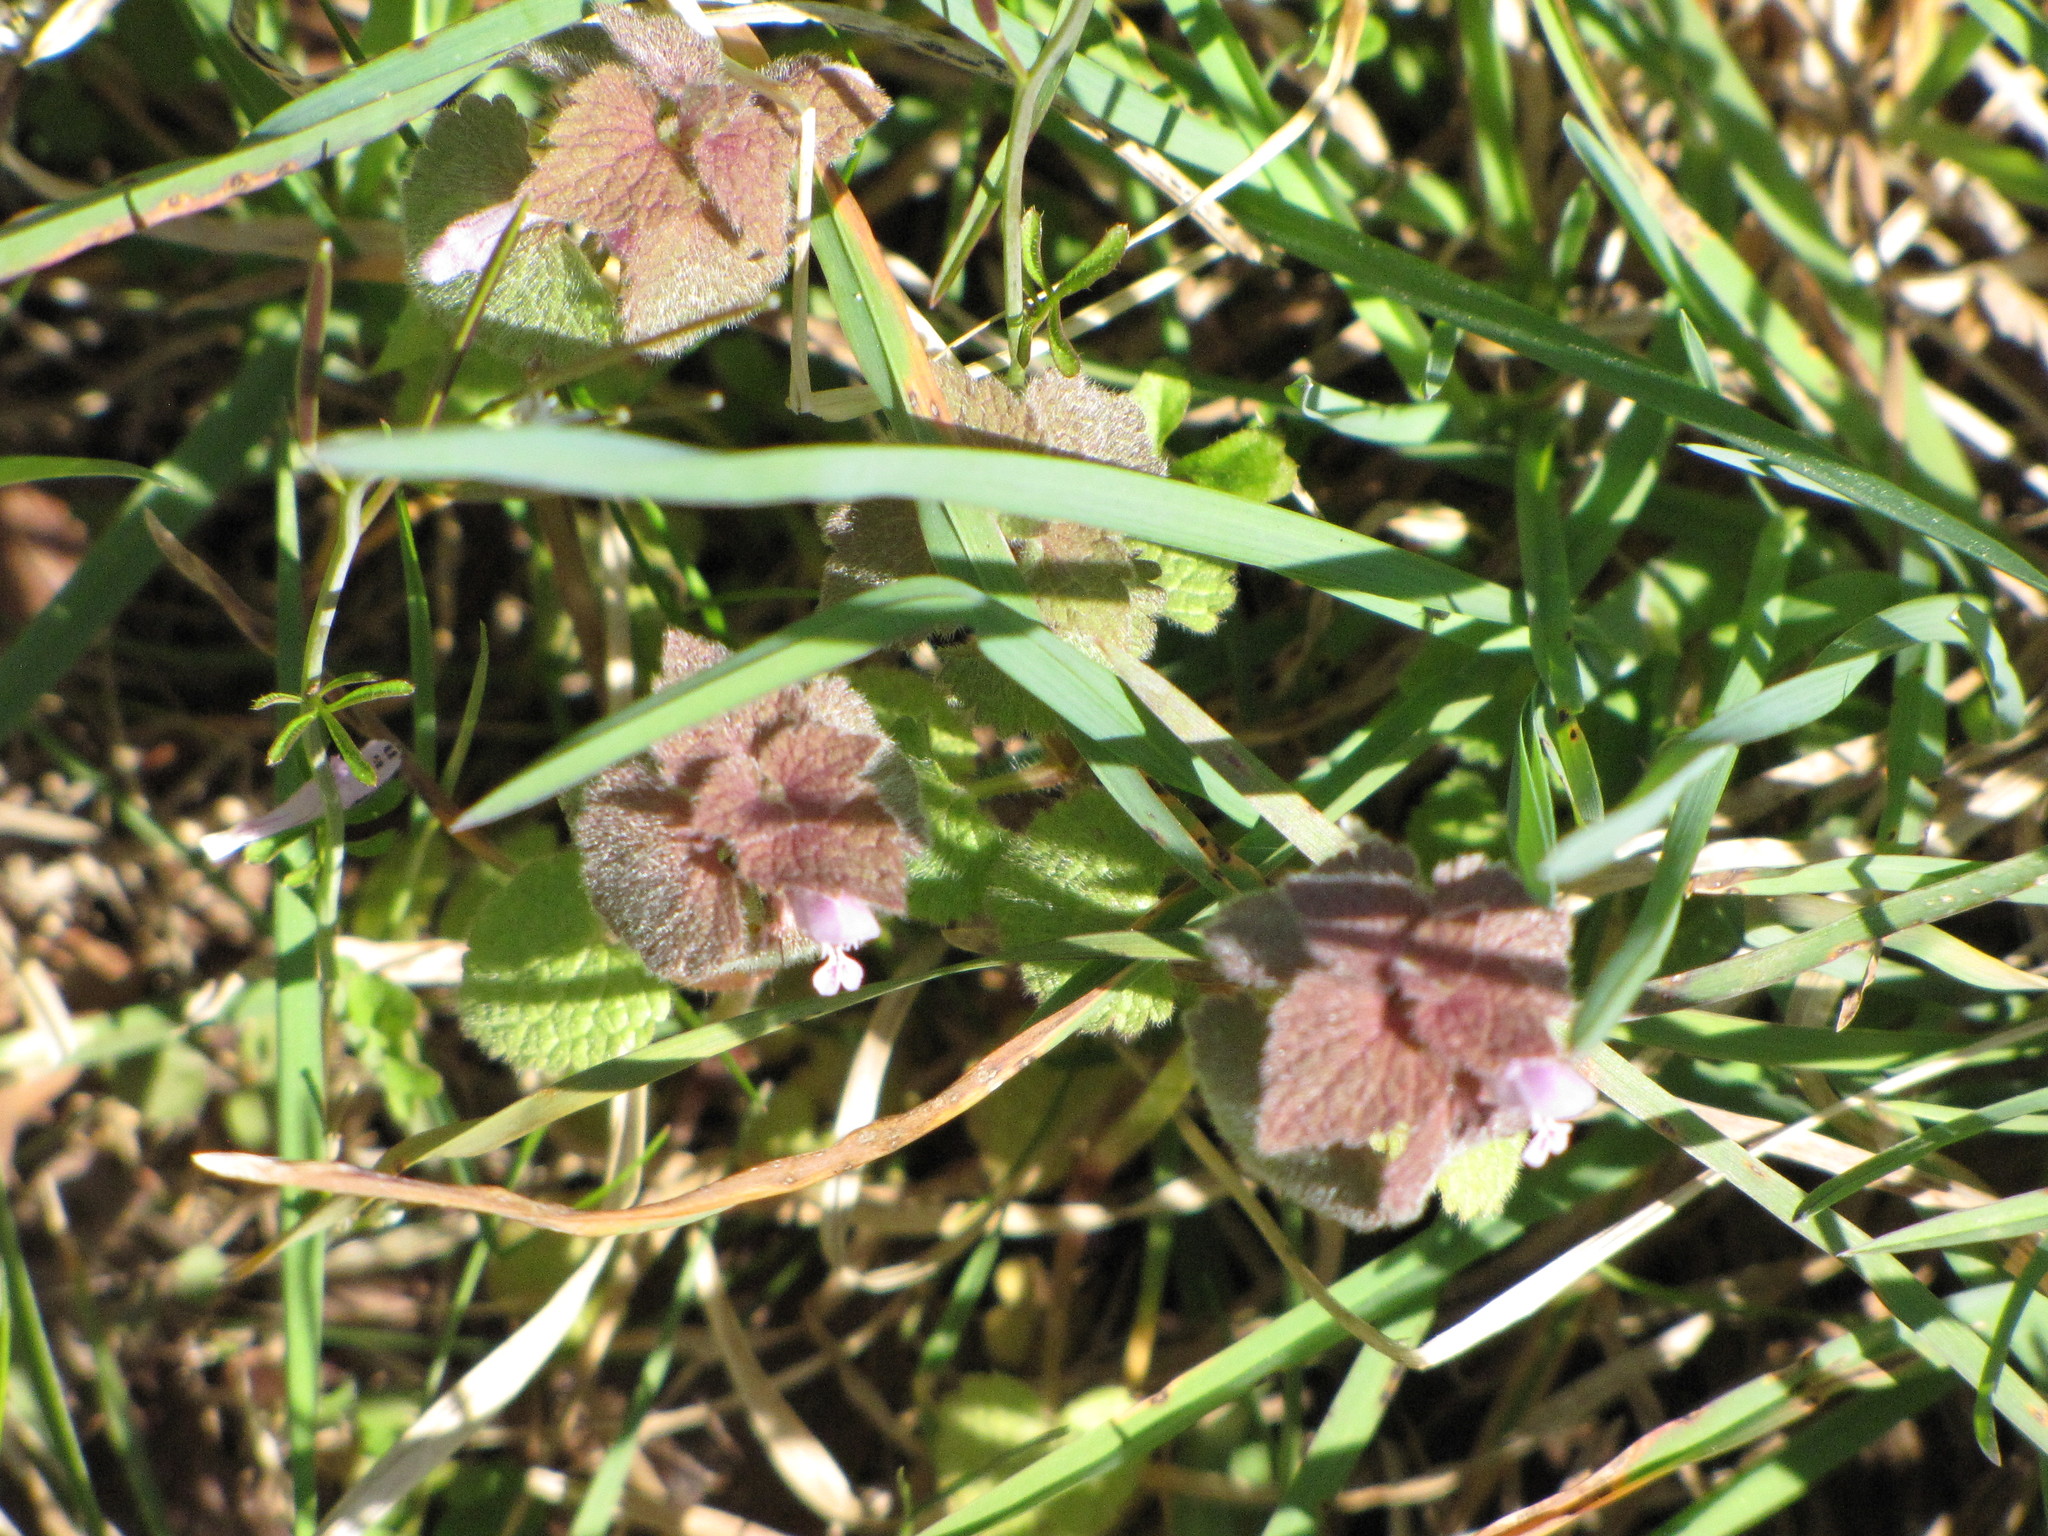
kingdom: Plantae
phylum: Tracheophyta
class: Magnoliopsida
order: Lamiales
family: Lamiaceae
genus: Lamium
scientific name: Lamium purpureum
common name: Red dead-nettle
